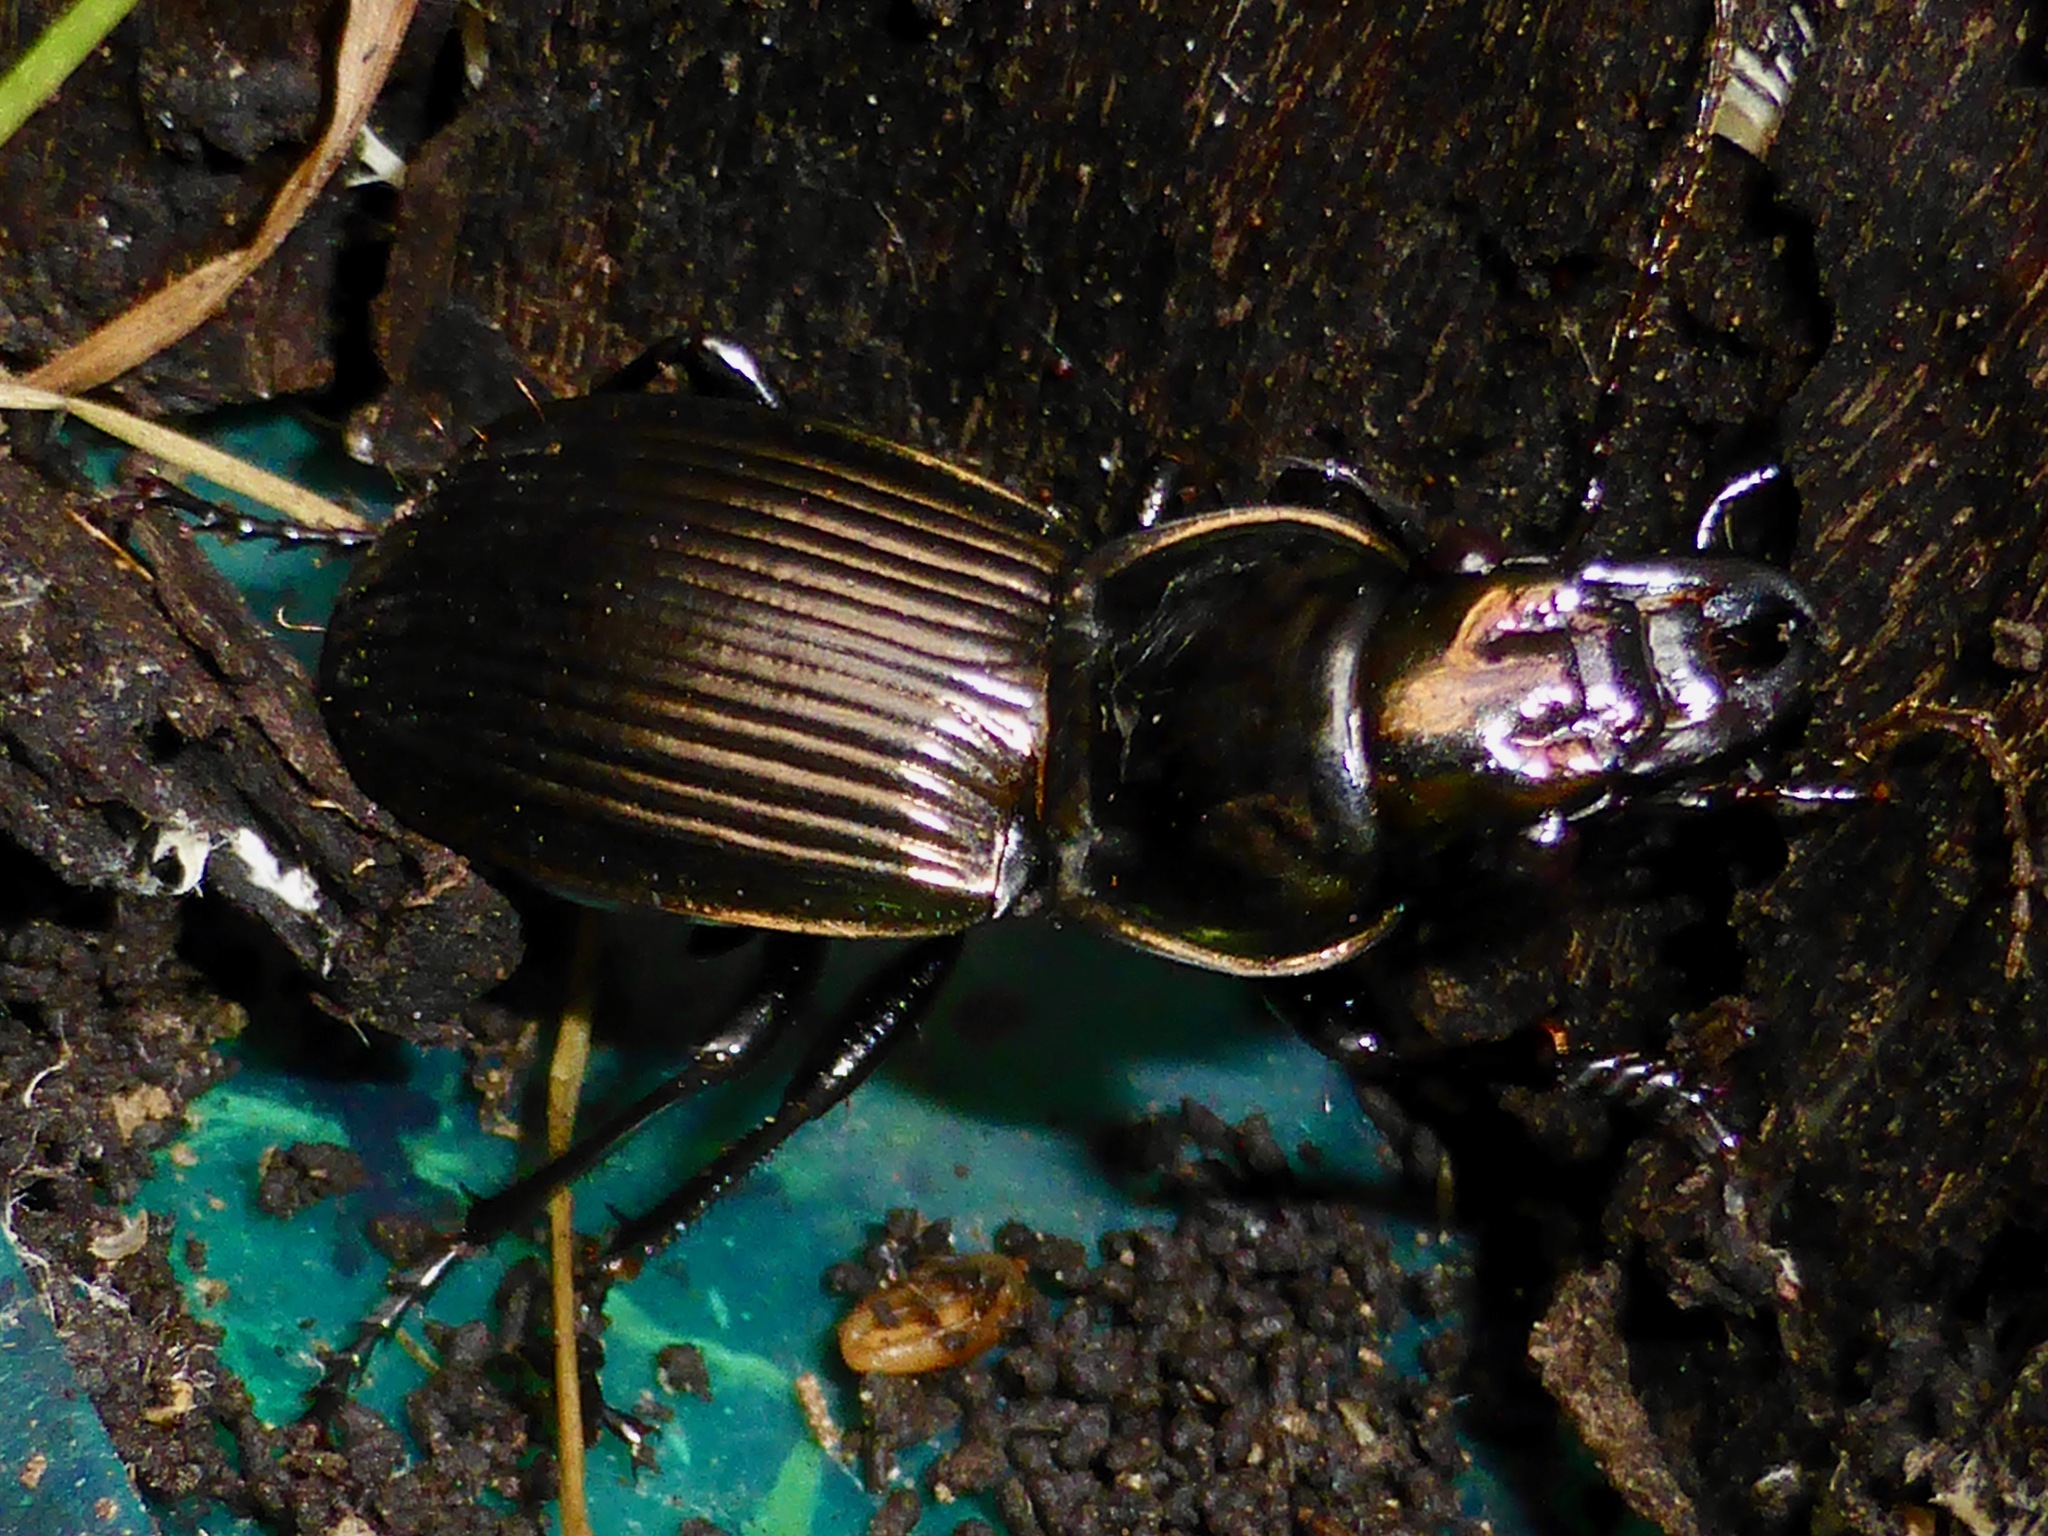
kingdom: Animalia
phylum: Arthropoda
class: Insecta
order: Coleoptera
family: Carabidae
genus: Megadromus
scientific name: Megadromus antarcticus
